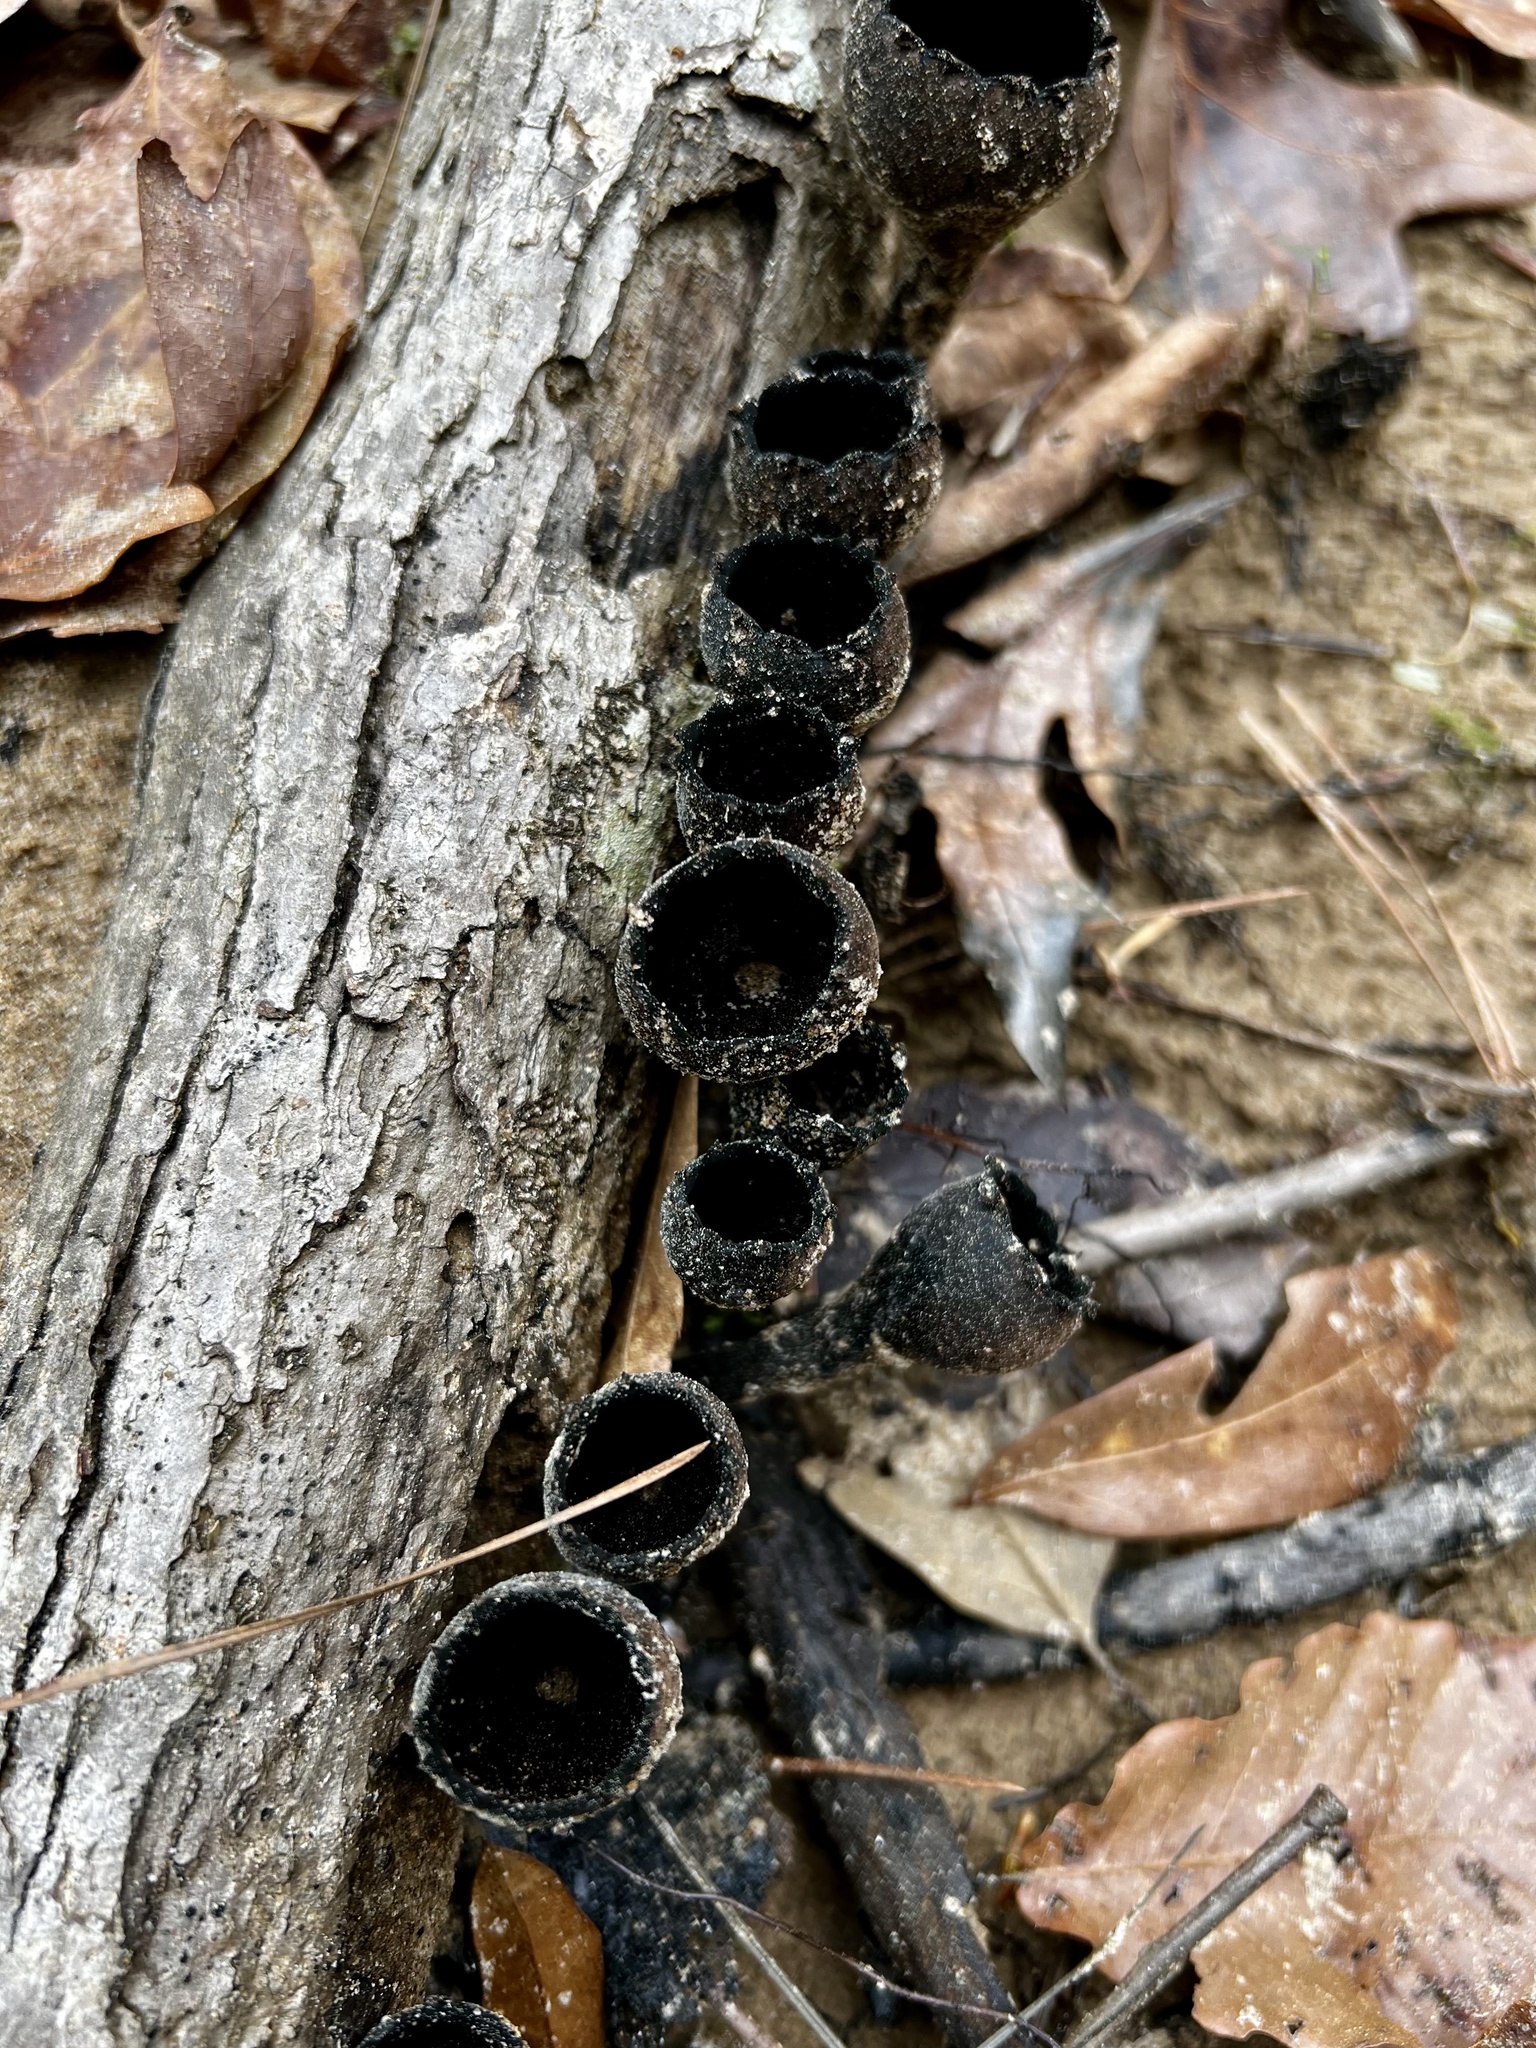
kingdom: Fungi
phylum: Ascomycota
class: Pezizomycetes
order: Pezizales
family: Sarcosomataceae
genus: Urnula
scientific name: Urnula craterium
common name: Devil's urn
